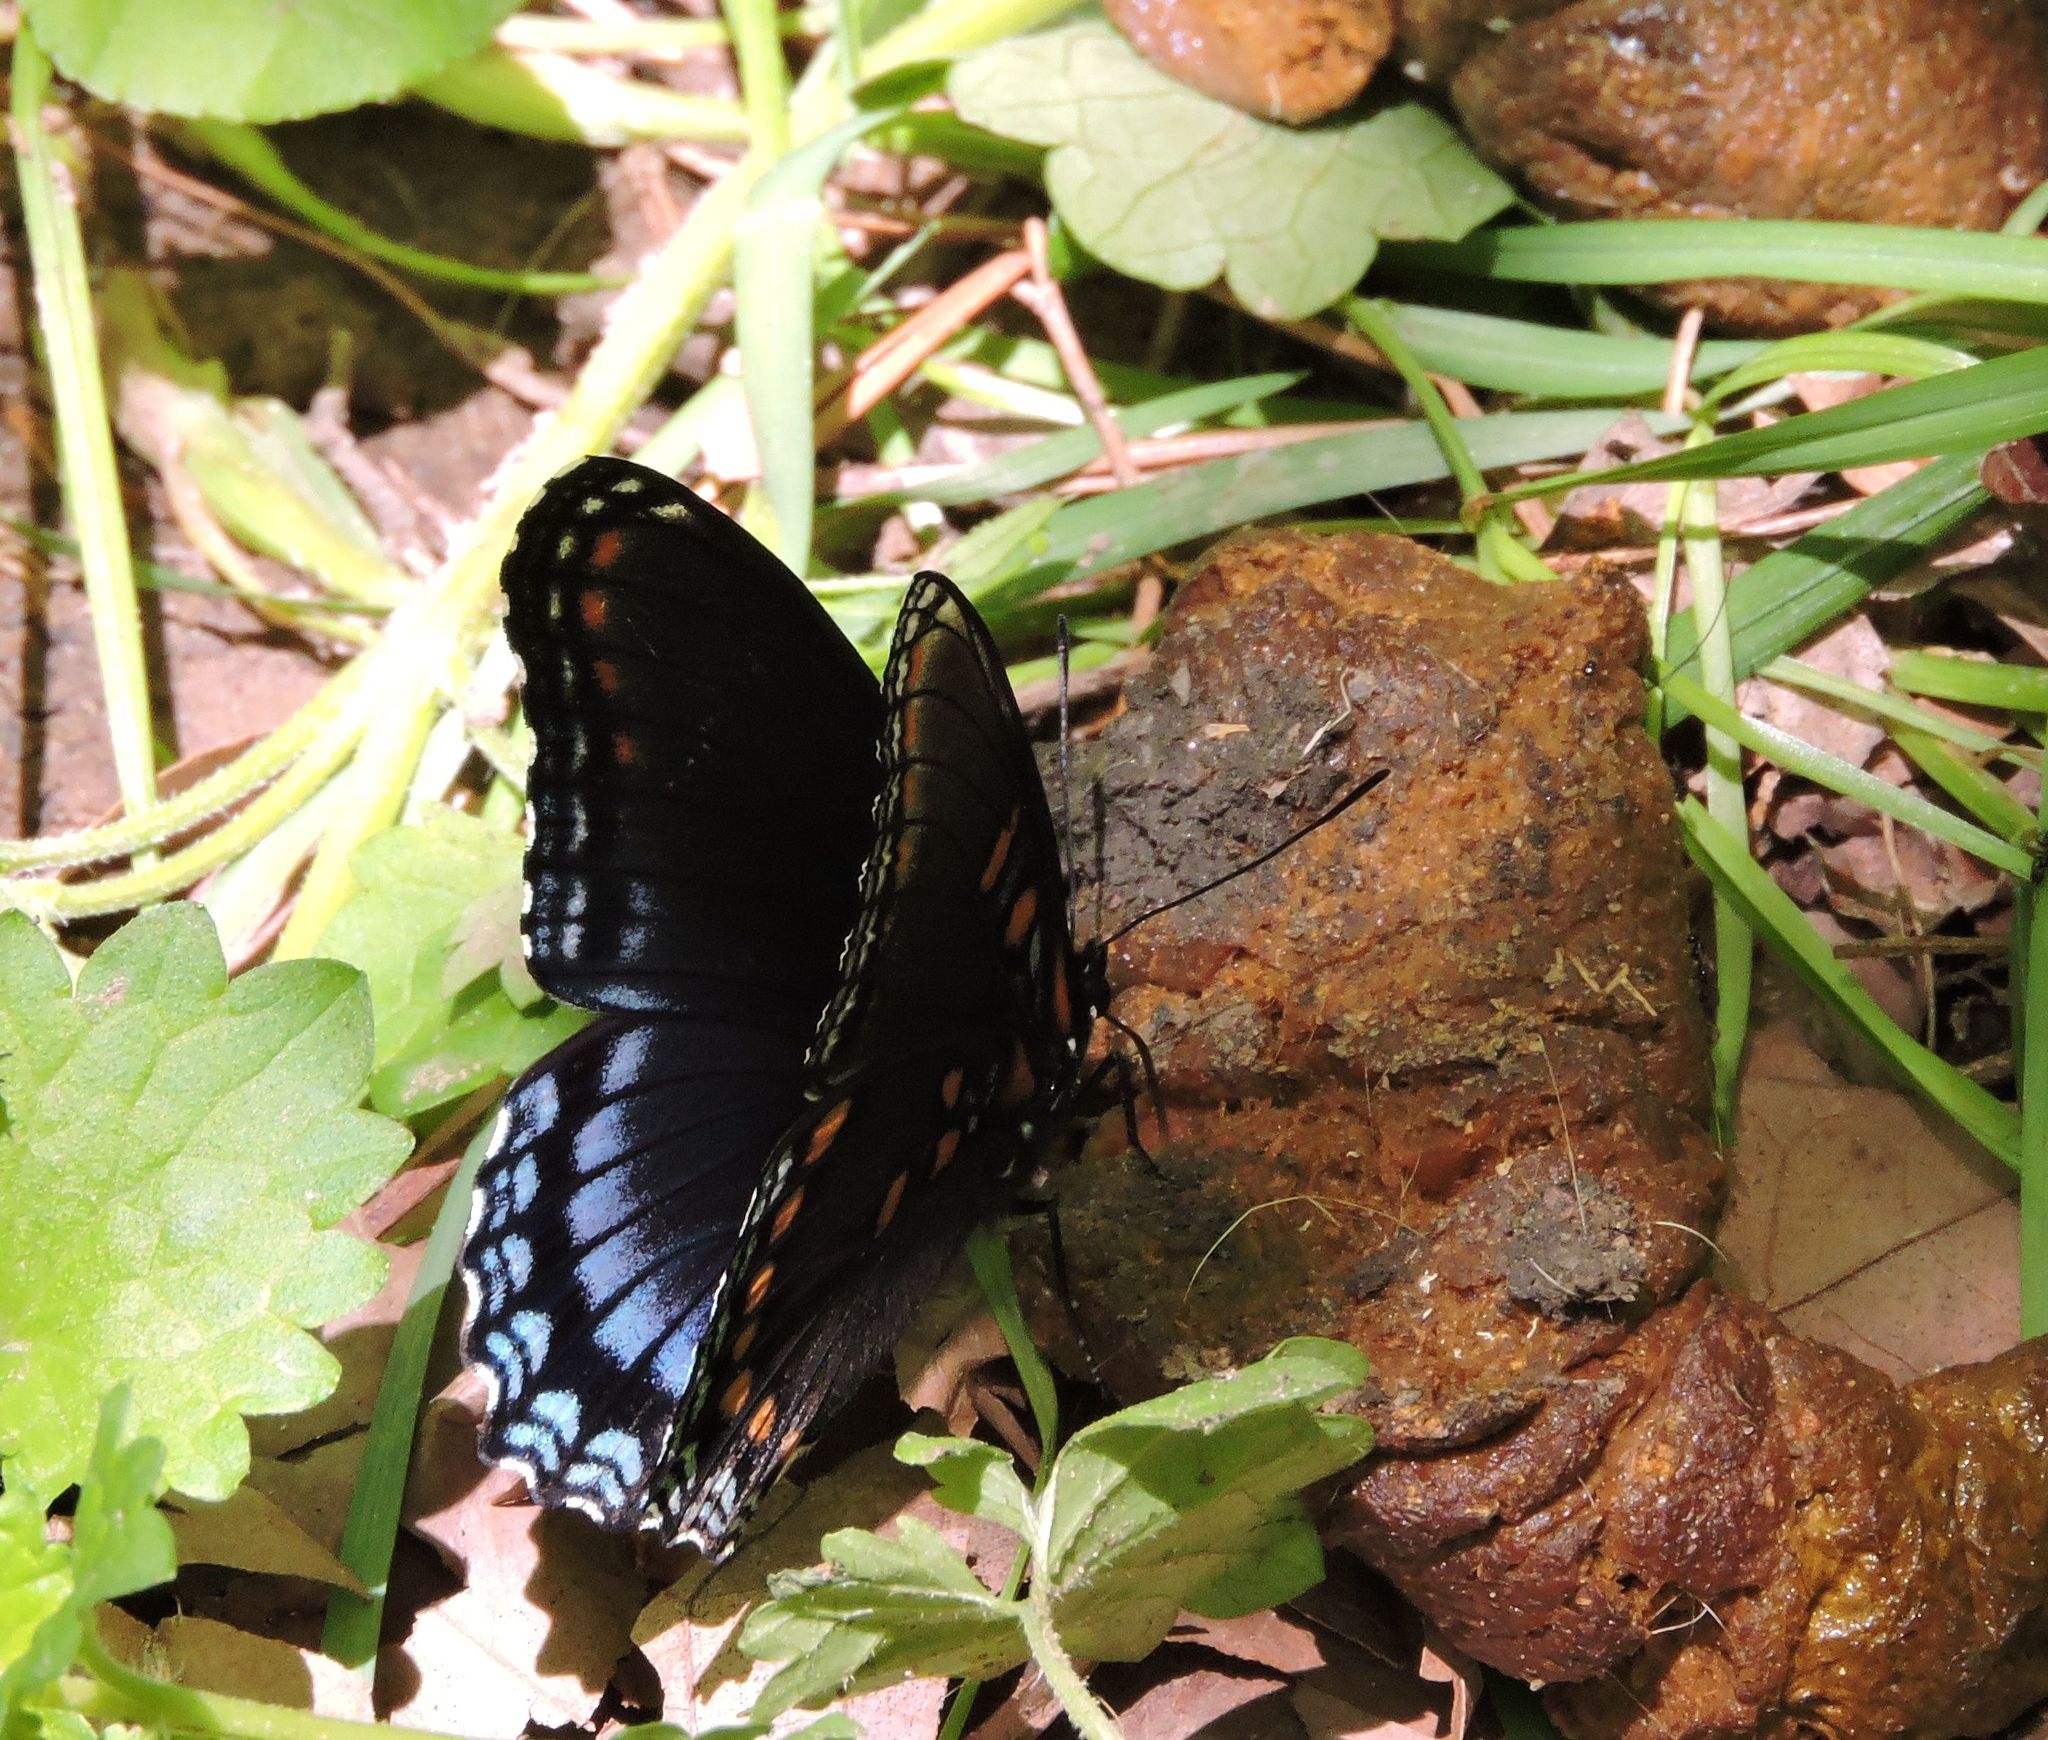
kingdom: Animalia
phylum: Arthropoda
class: Insecta
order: Lepidoptera
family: Nymphalidae
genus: Limenitis
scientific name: Limenitis astyanax
